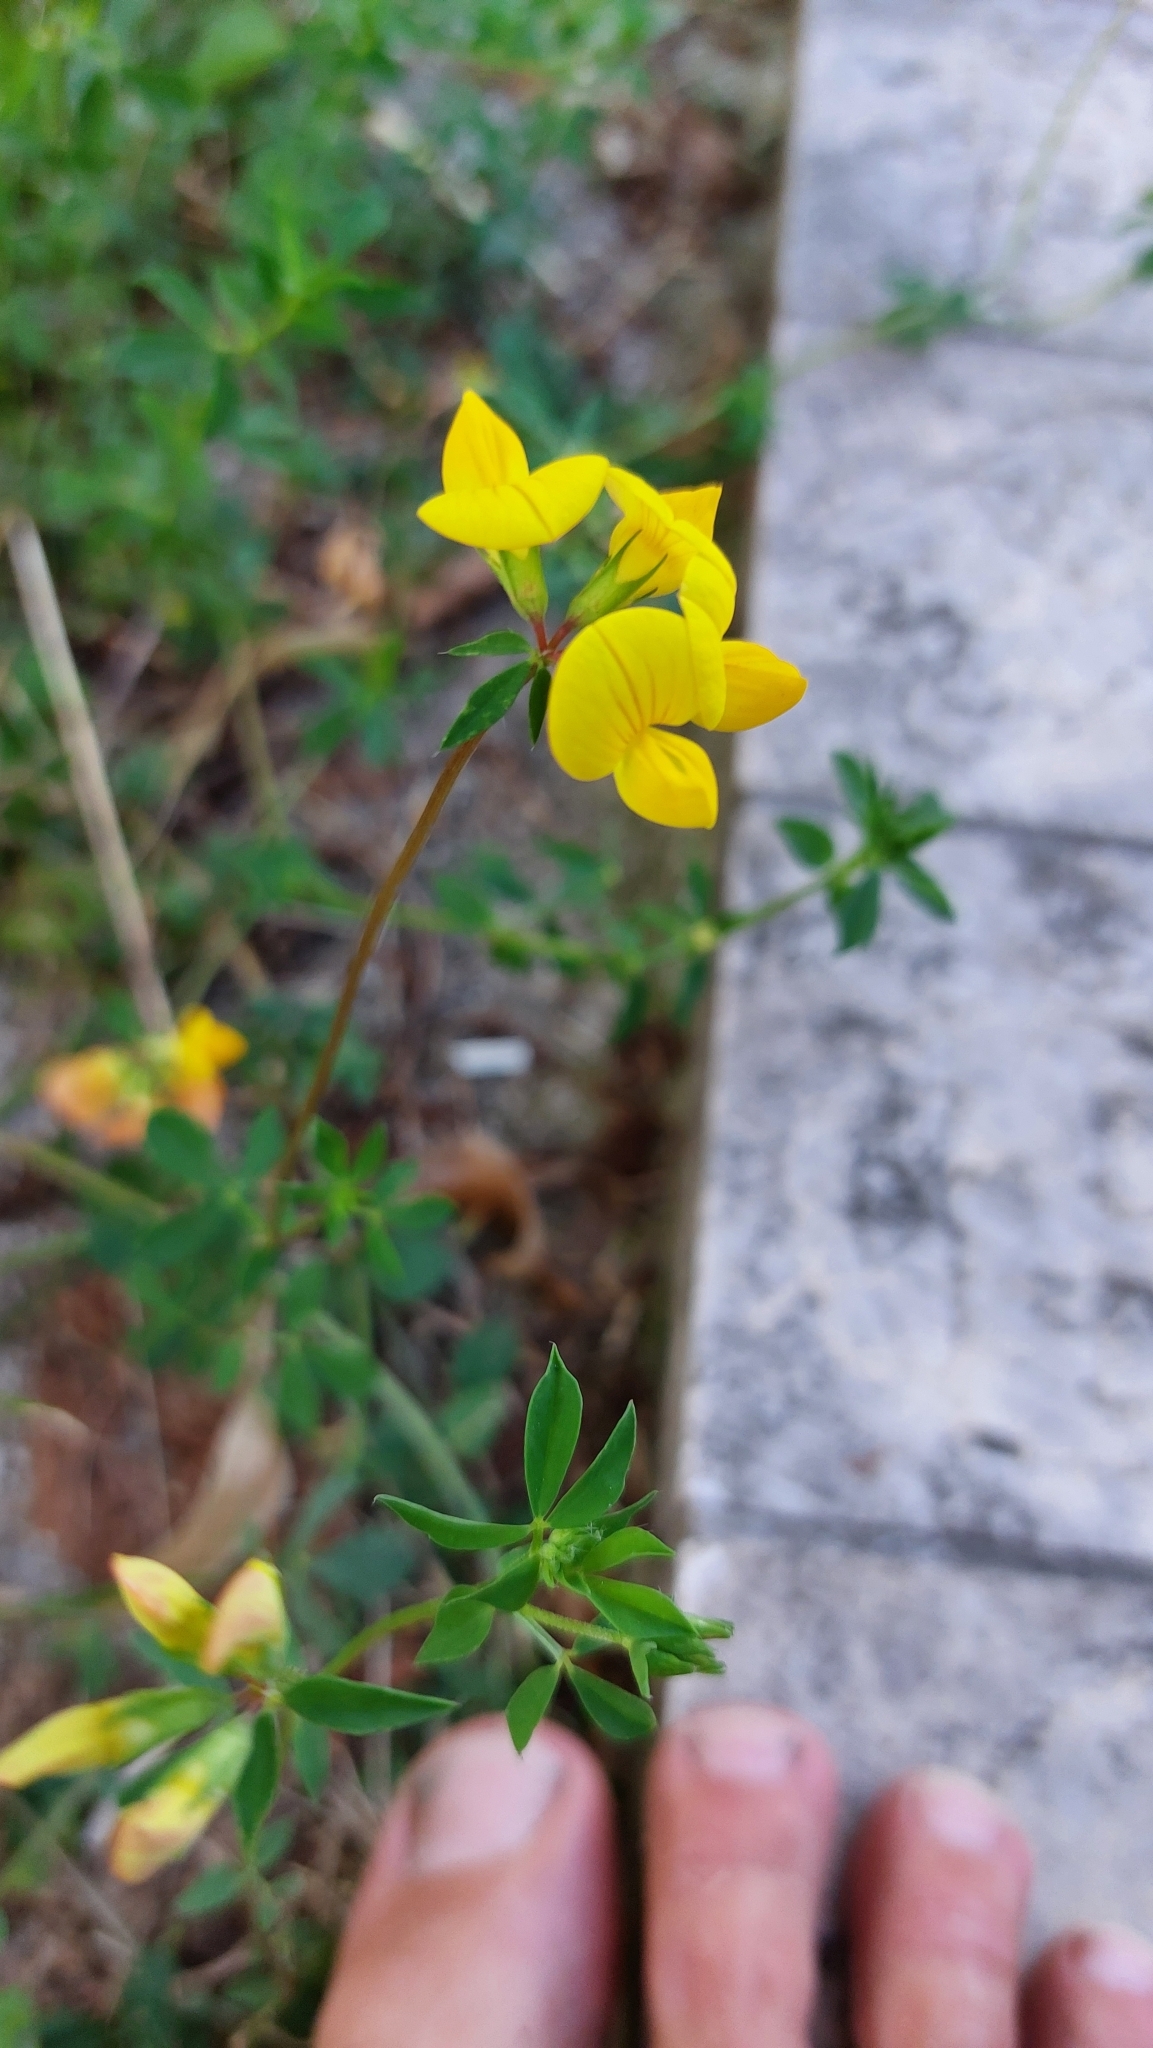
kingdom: Plantae
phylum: Tracheophyta
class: Magnoliopsida
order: Fabales
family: Fabaceae
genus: Lotus
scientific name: Lotus corniculatus
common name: Common bird's-foot-trefoil
